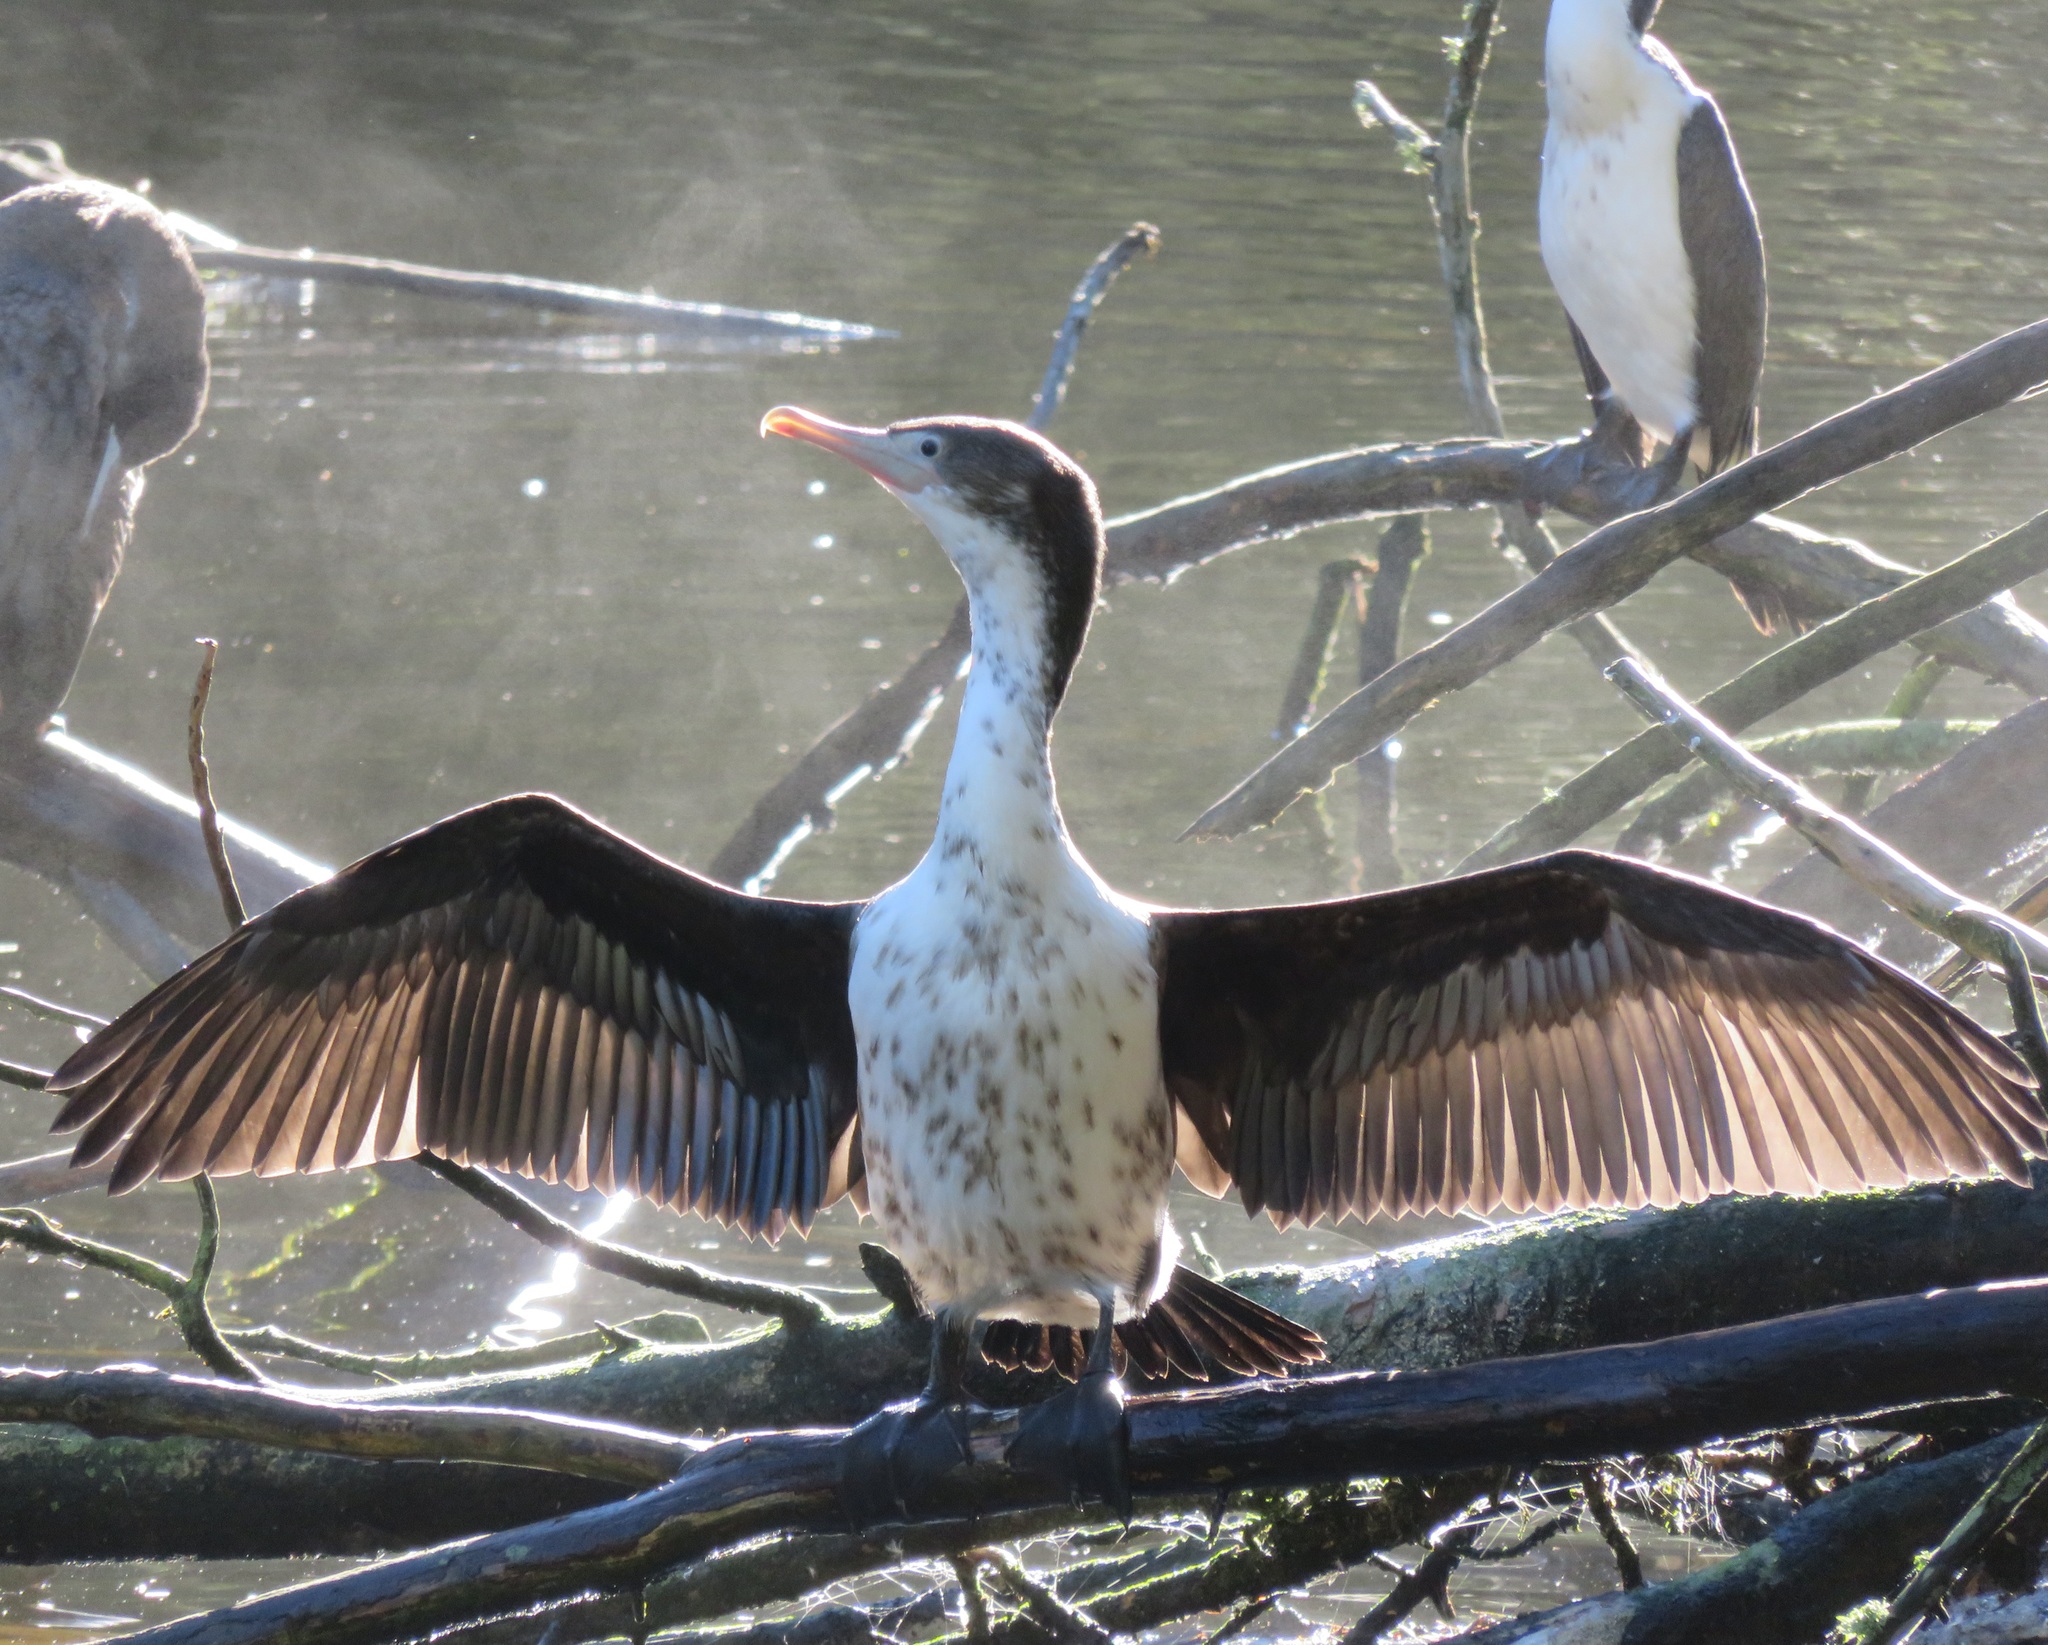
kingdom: Animalia
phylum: Chordata
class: Aves
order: Suliformes
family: Phalacrocoracidae
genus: Phalacrocorax
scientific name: Phalacrocorax varius
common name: Pied cormorant
